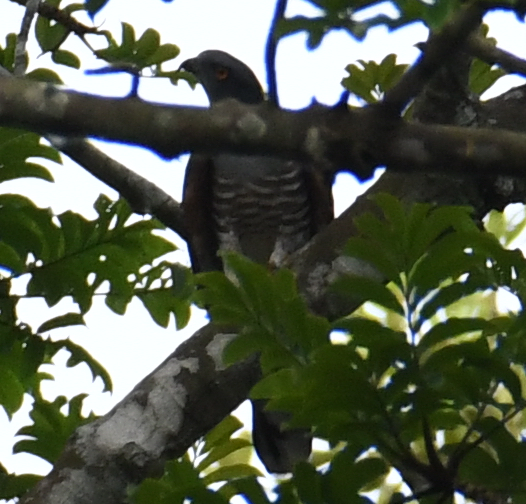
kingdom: Animalia
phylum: Chordata
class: Aves
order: Accipitriformes
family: Accipitridae
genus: Aviceda
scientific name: Aviceda cuculoides
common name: African cuckoo-hawk
